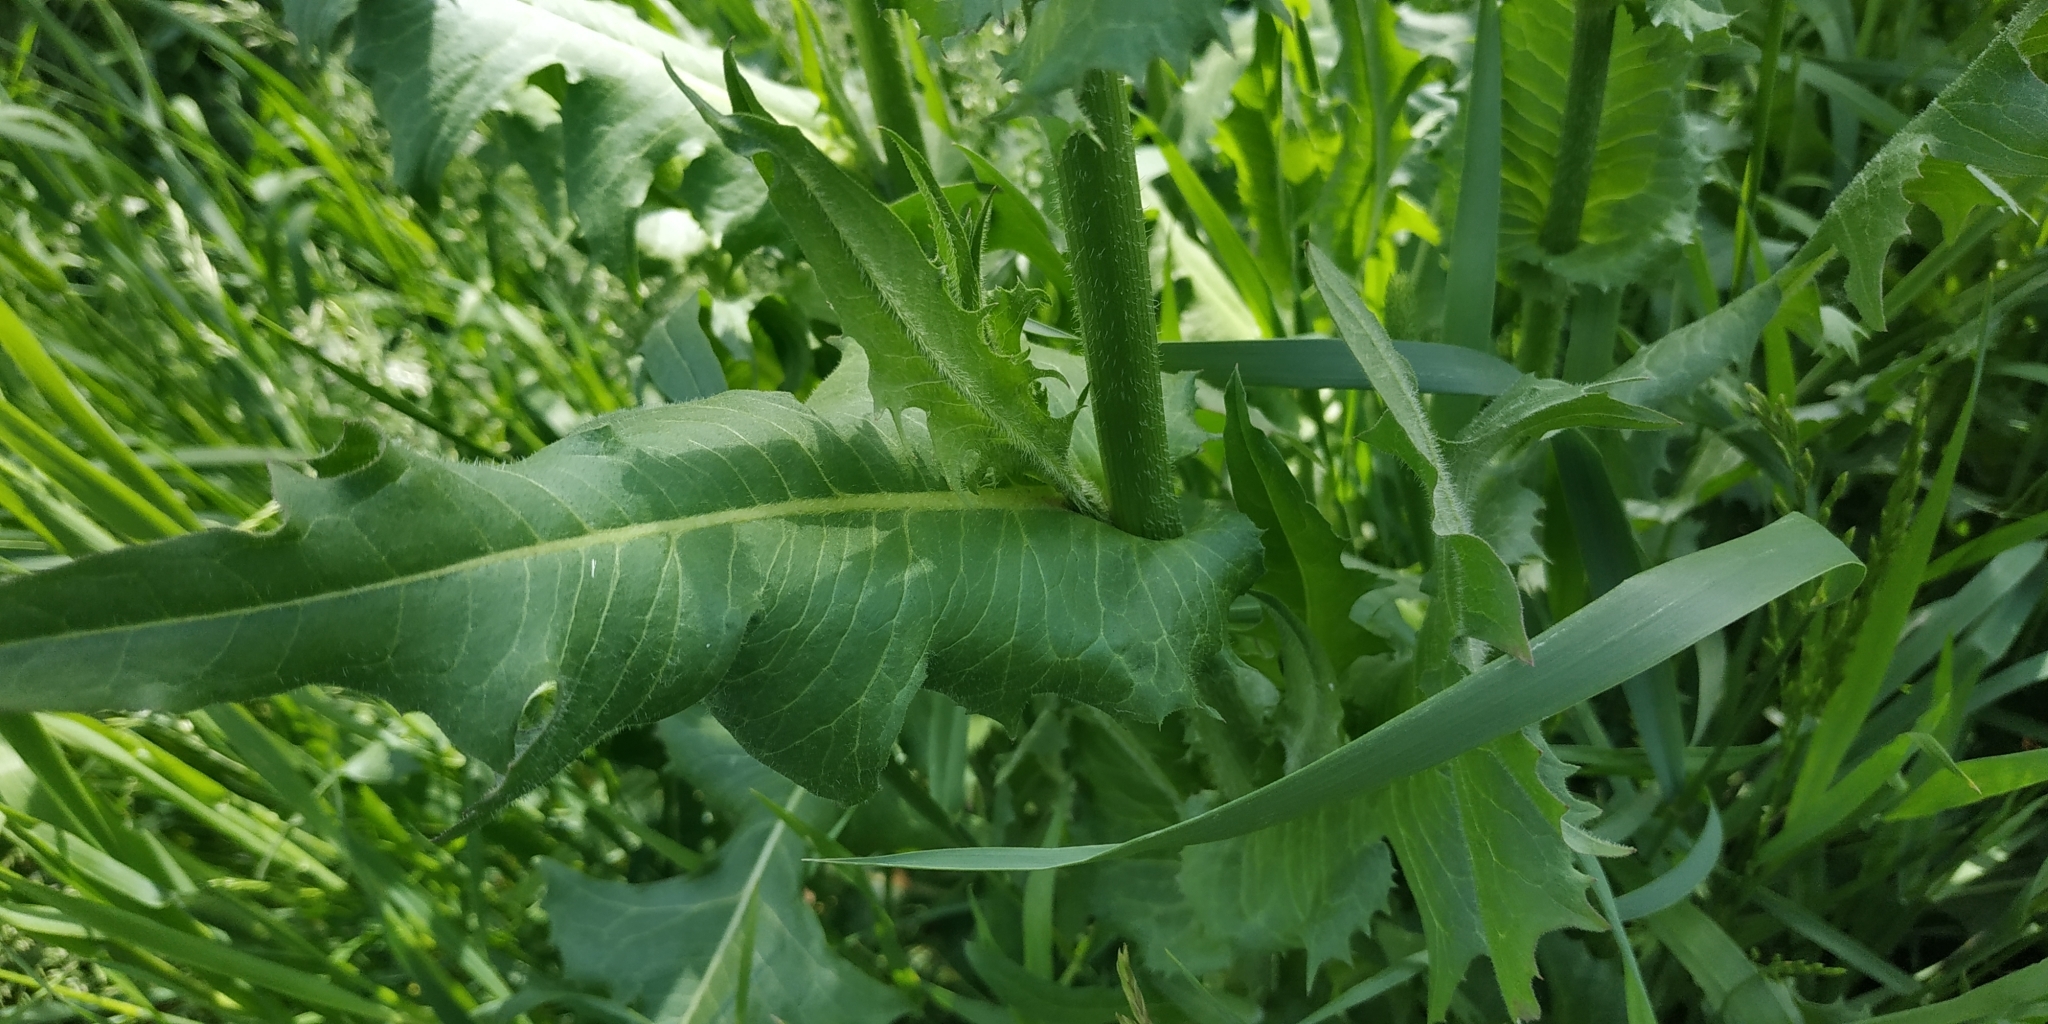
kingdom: Plantae
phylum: Tracheophyta
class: Magnoliopsida
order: Asterales
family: Asteraceae
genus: Sonchus
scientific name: Sonchus oleraceus
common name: Common sowthistle
